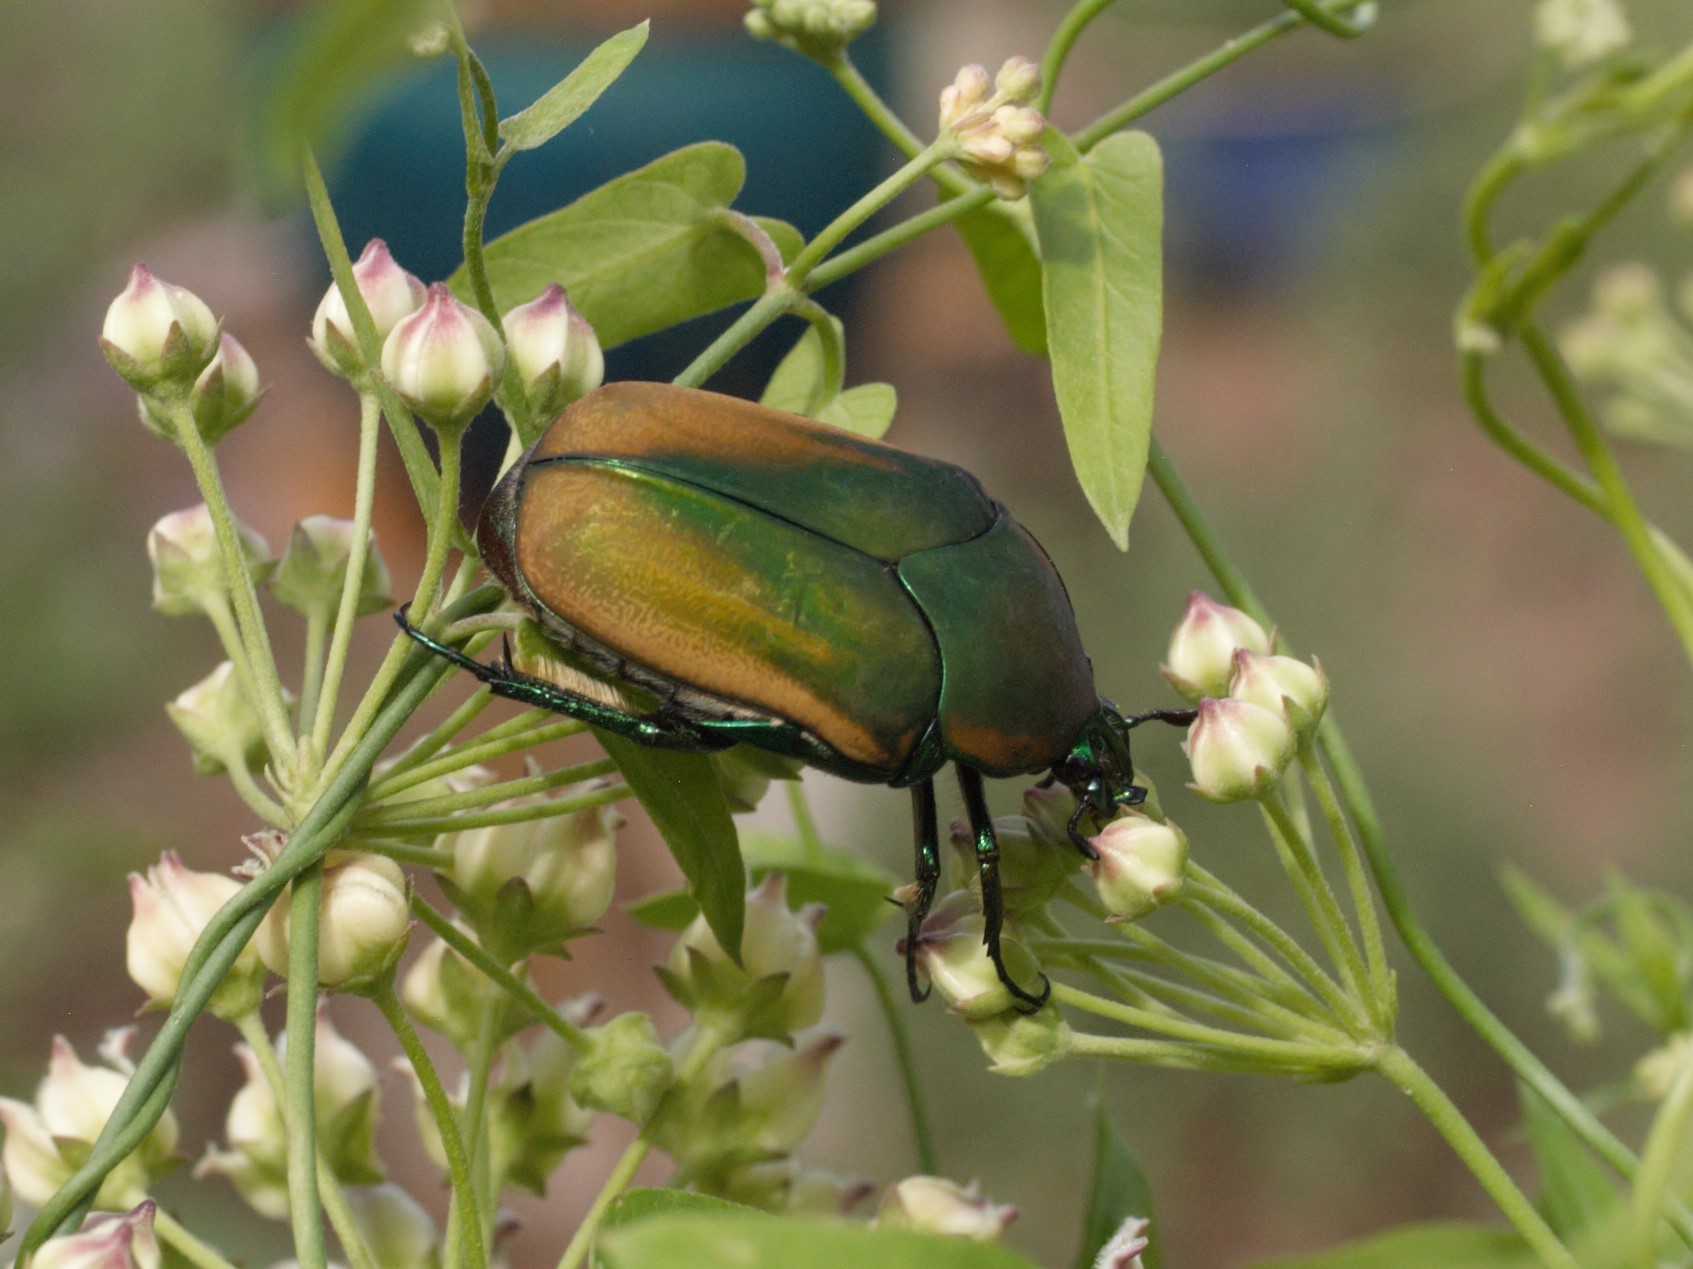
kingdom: Animalia
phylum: Arthropoda
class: Insecta
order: Coleoptera
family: Scarabaeidae
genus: Cotinis
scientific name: Cotinis mutabilis
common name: Figeater beetle
